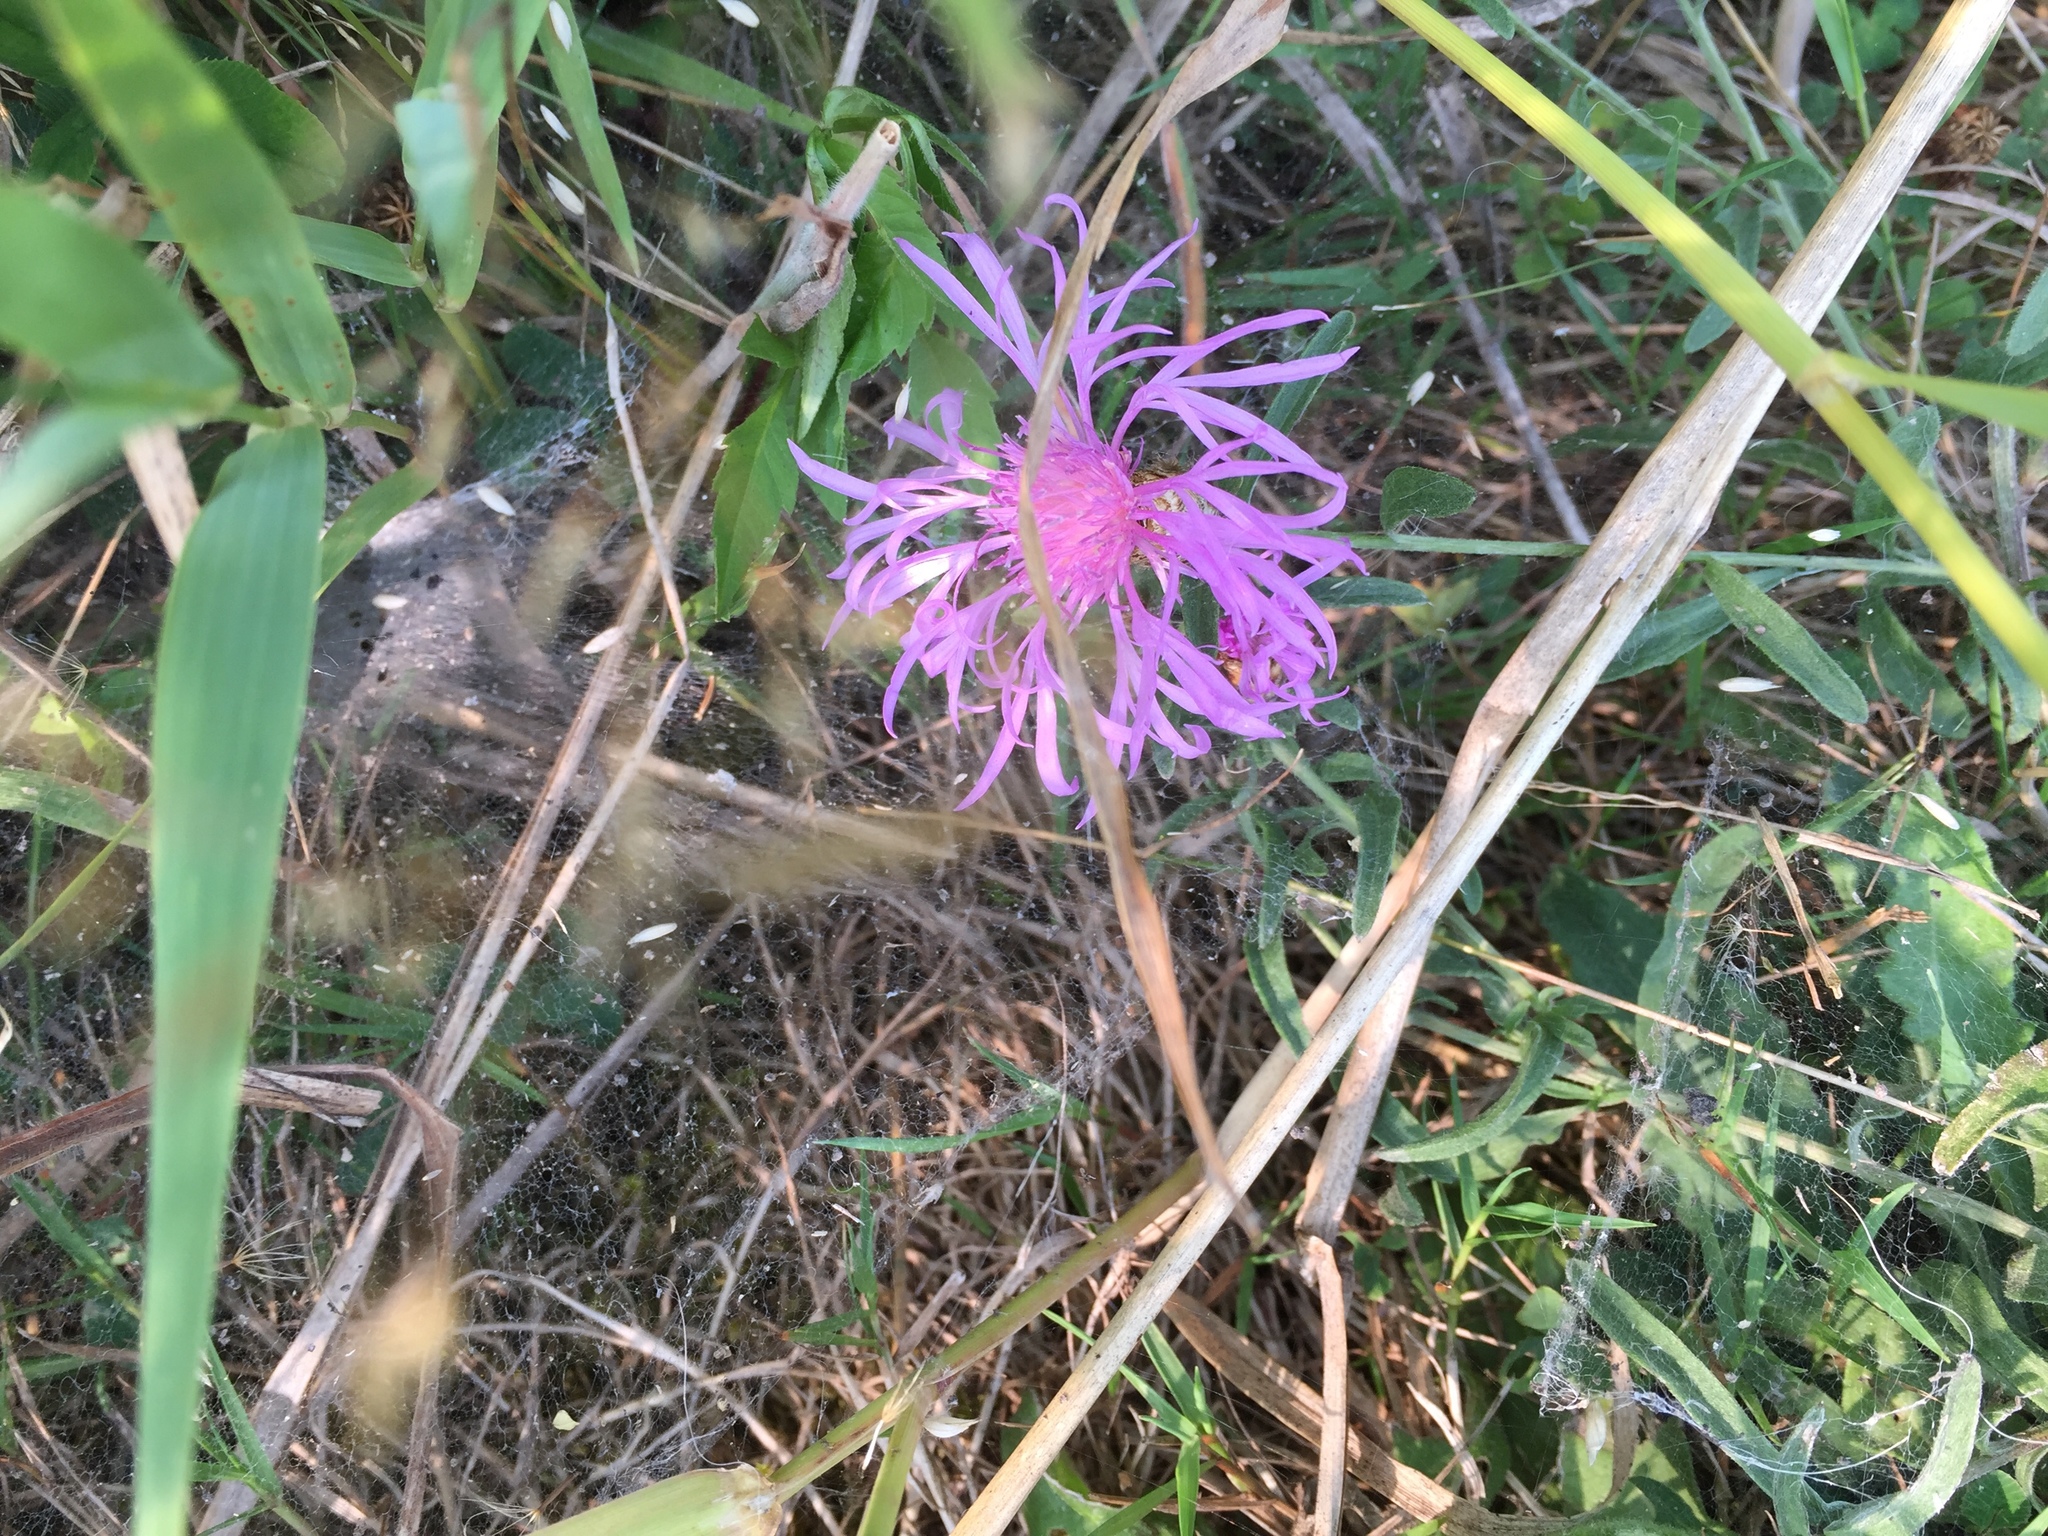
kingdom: Plantae
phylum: Tracheophyta
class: Magnoliopsida
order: Asterales
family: Asteraceae
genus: Centaurea
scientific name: Centaurea moncktonii
